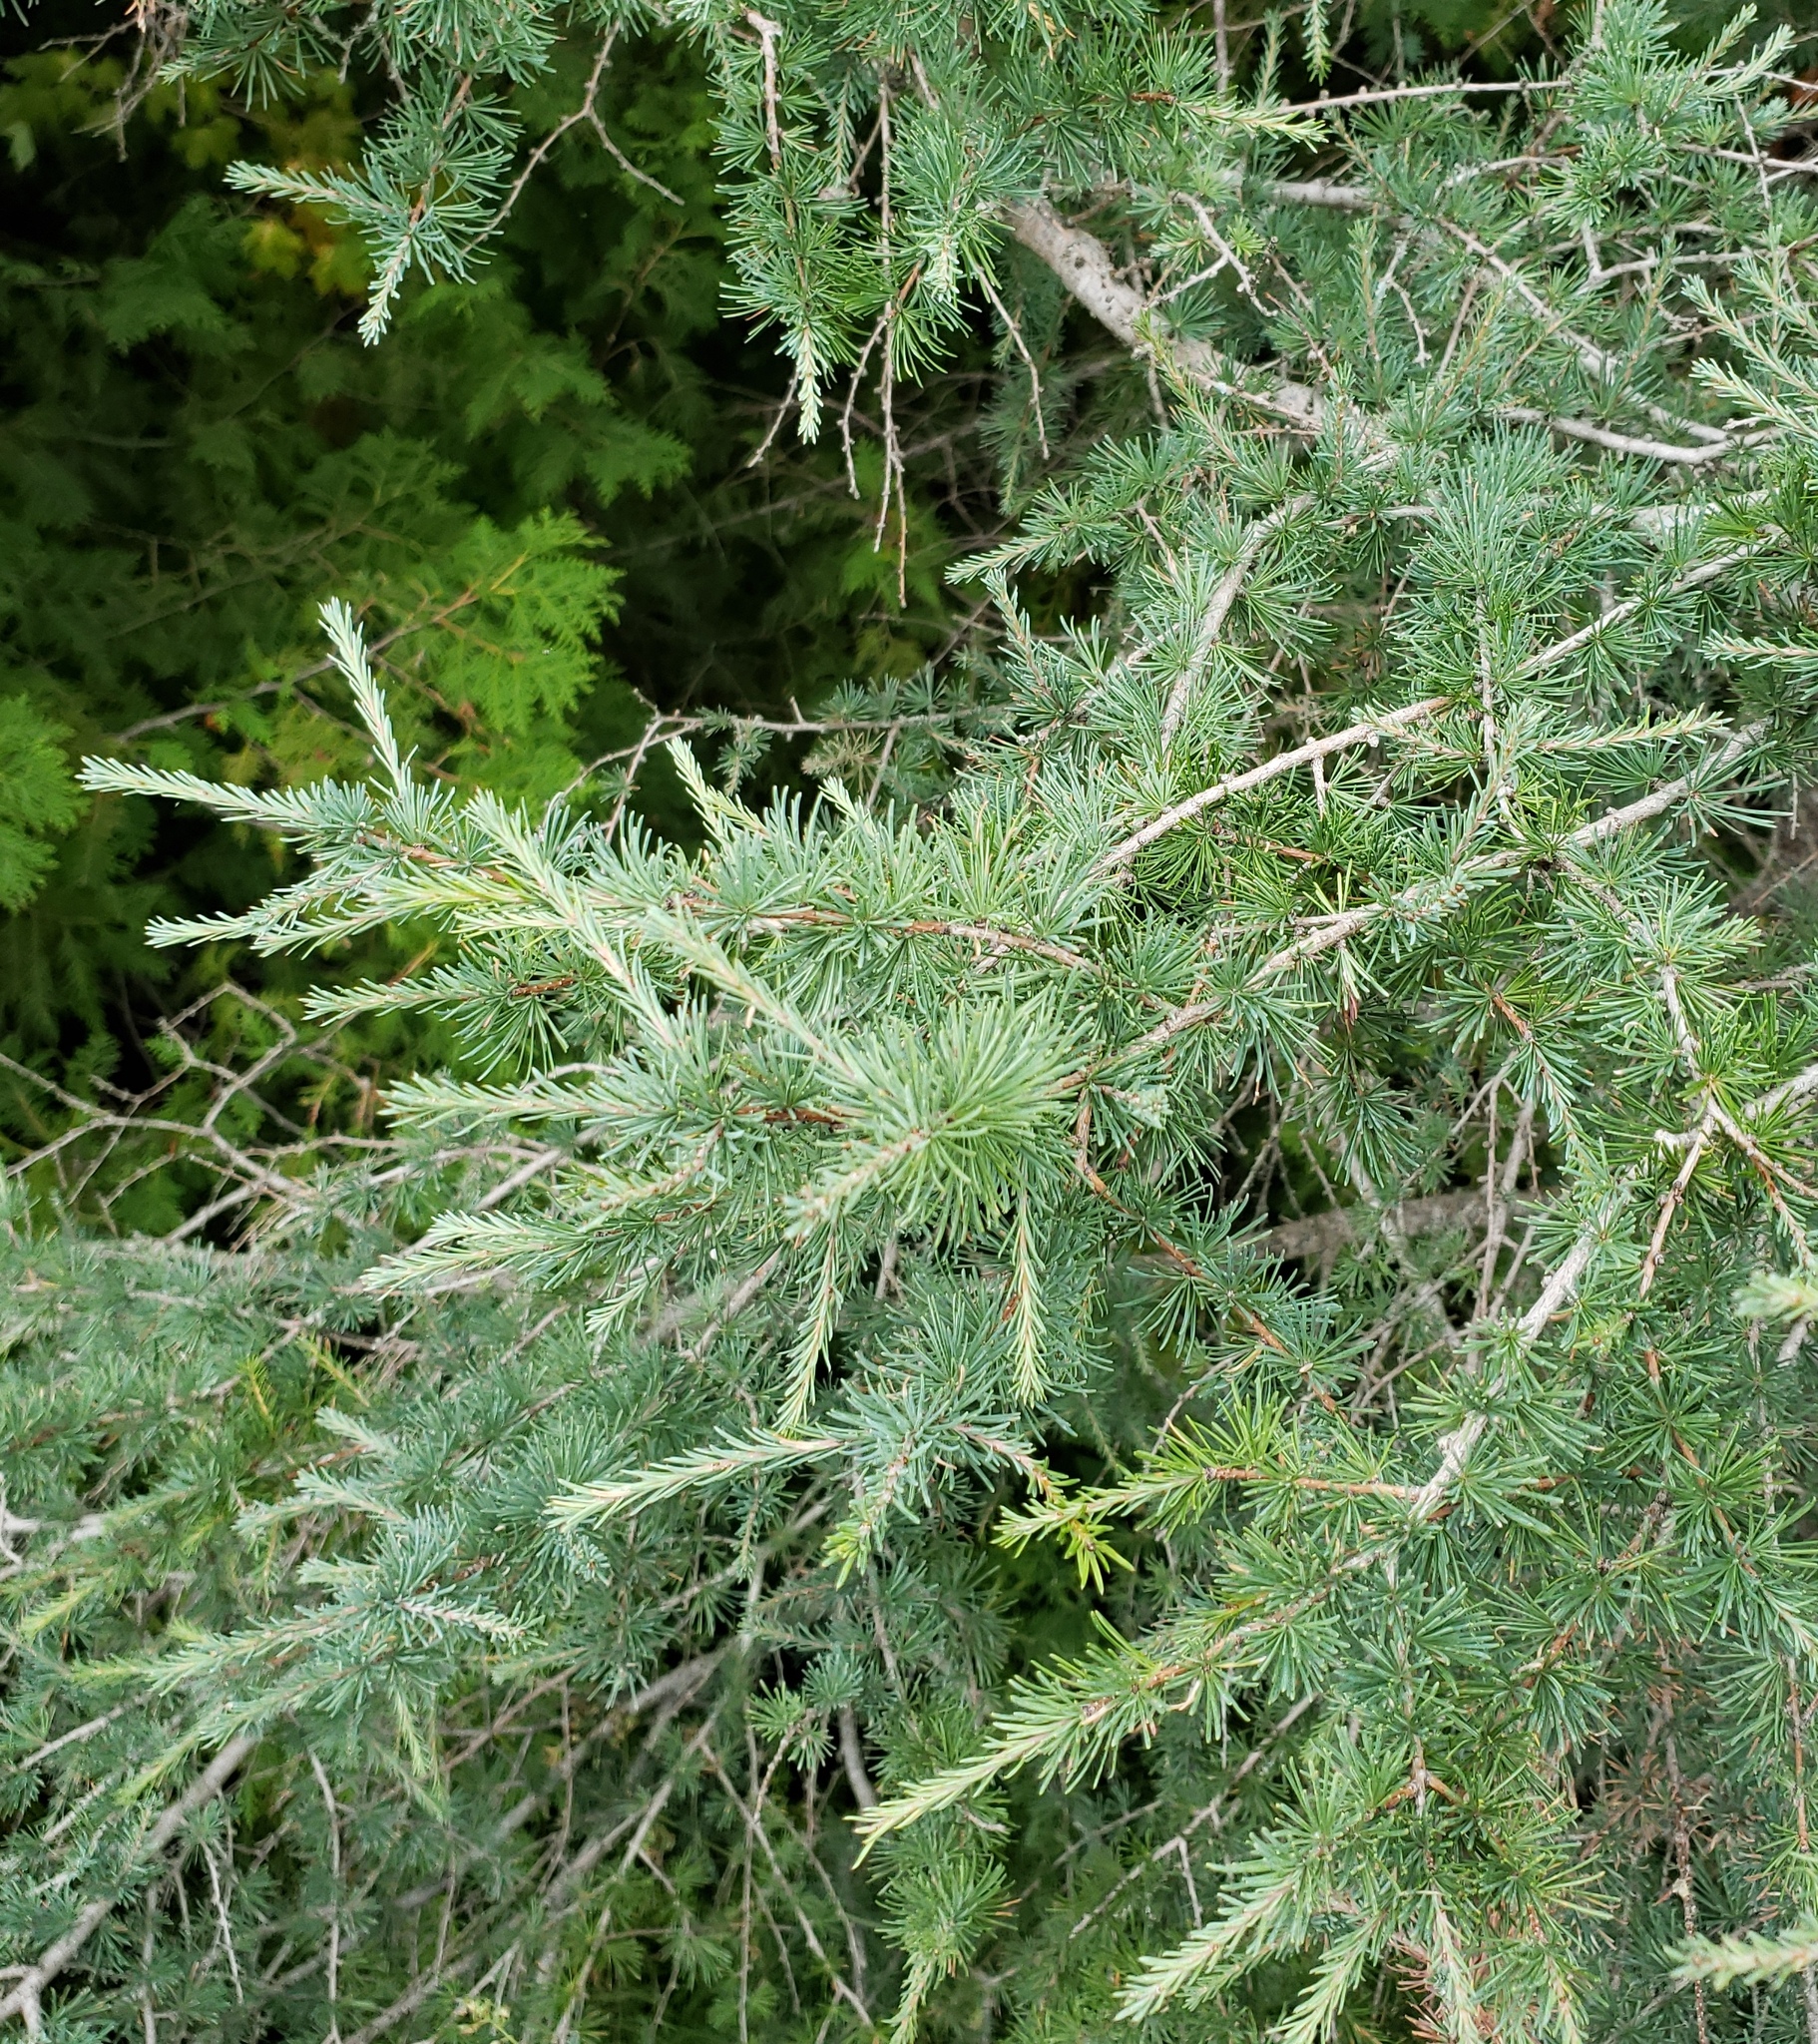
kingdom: Plantae
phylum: Tracheophyta
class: Pinopsida
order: Pinales
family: Pinaceae
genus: Larix
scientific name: Larix laricina
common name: American larch
